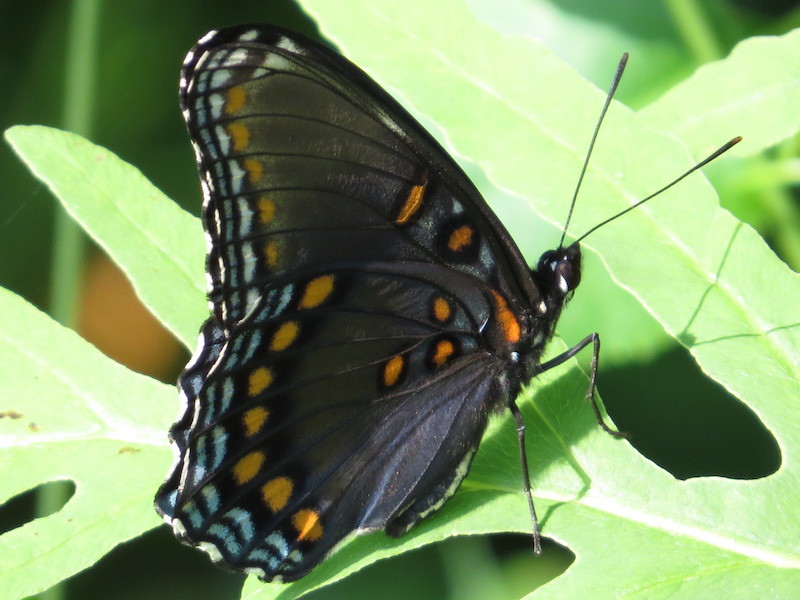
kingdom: Animalia
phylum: Arthropoda
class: Insecta
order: Lepidoptera
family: Nymphalidae
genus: Limenitis
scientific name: Limenitis astyanax
